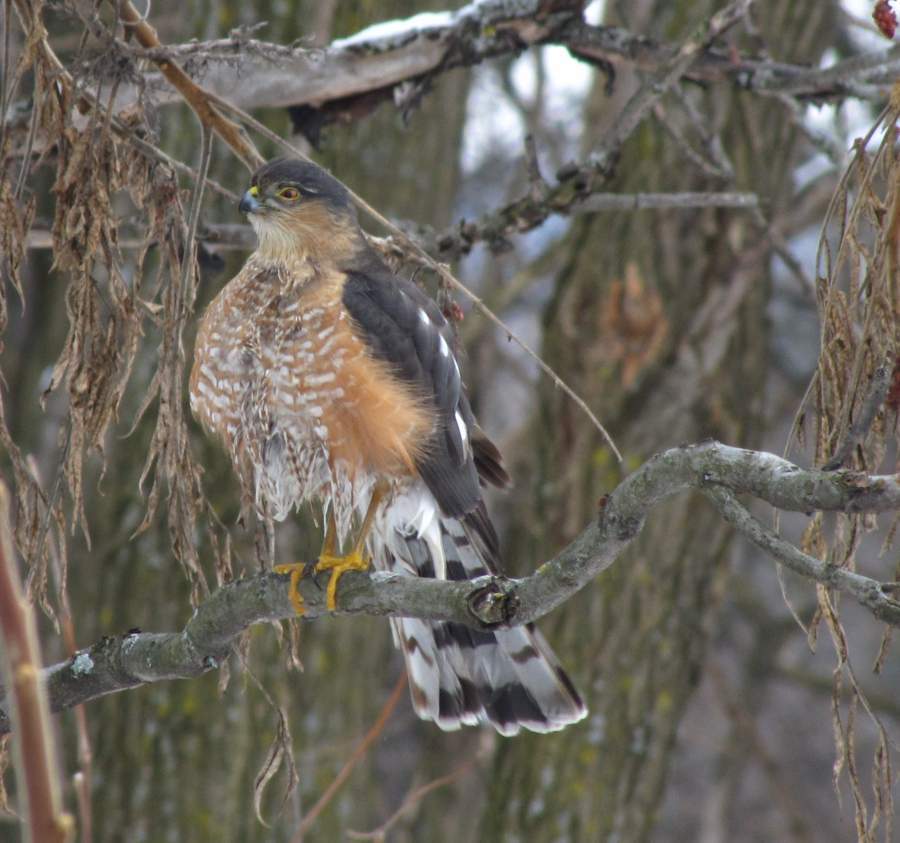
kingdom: Animalia
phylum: Chordata
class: Aves
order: Accipitriformes
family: Accipitridae
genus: Accipiter
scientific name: Accipiter striatus
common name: Sharp-shinned hawk
